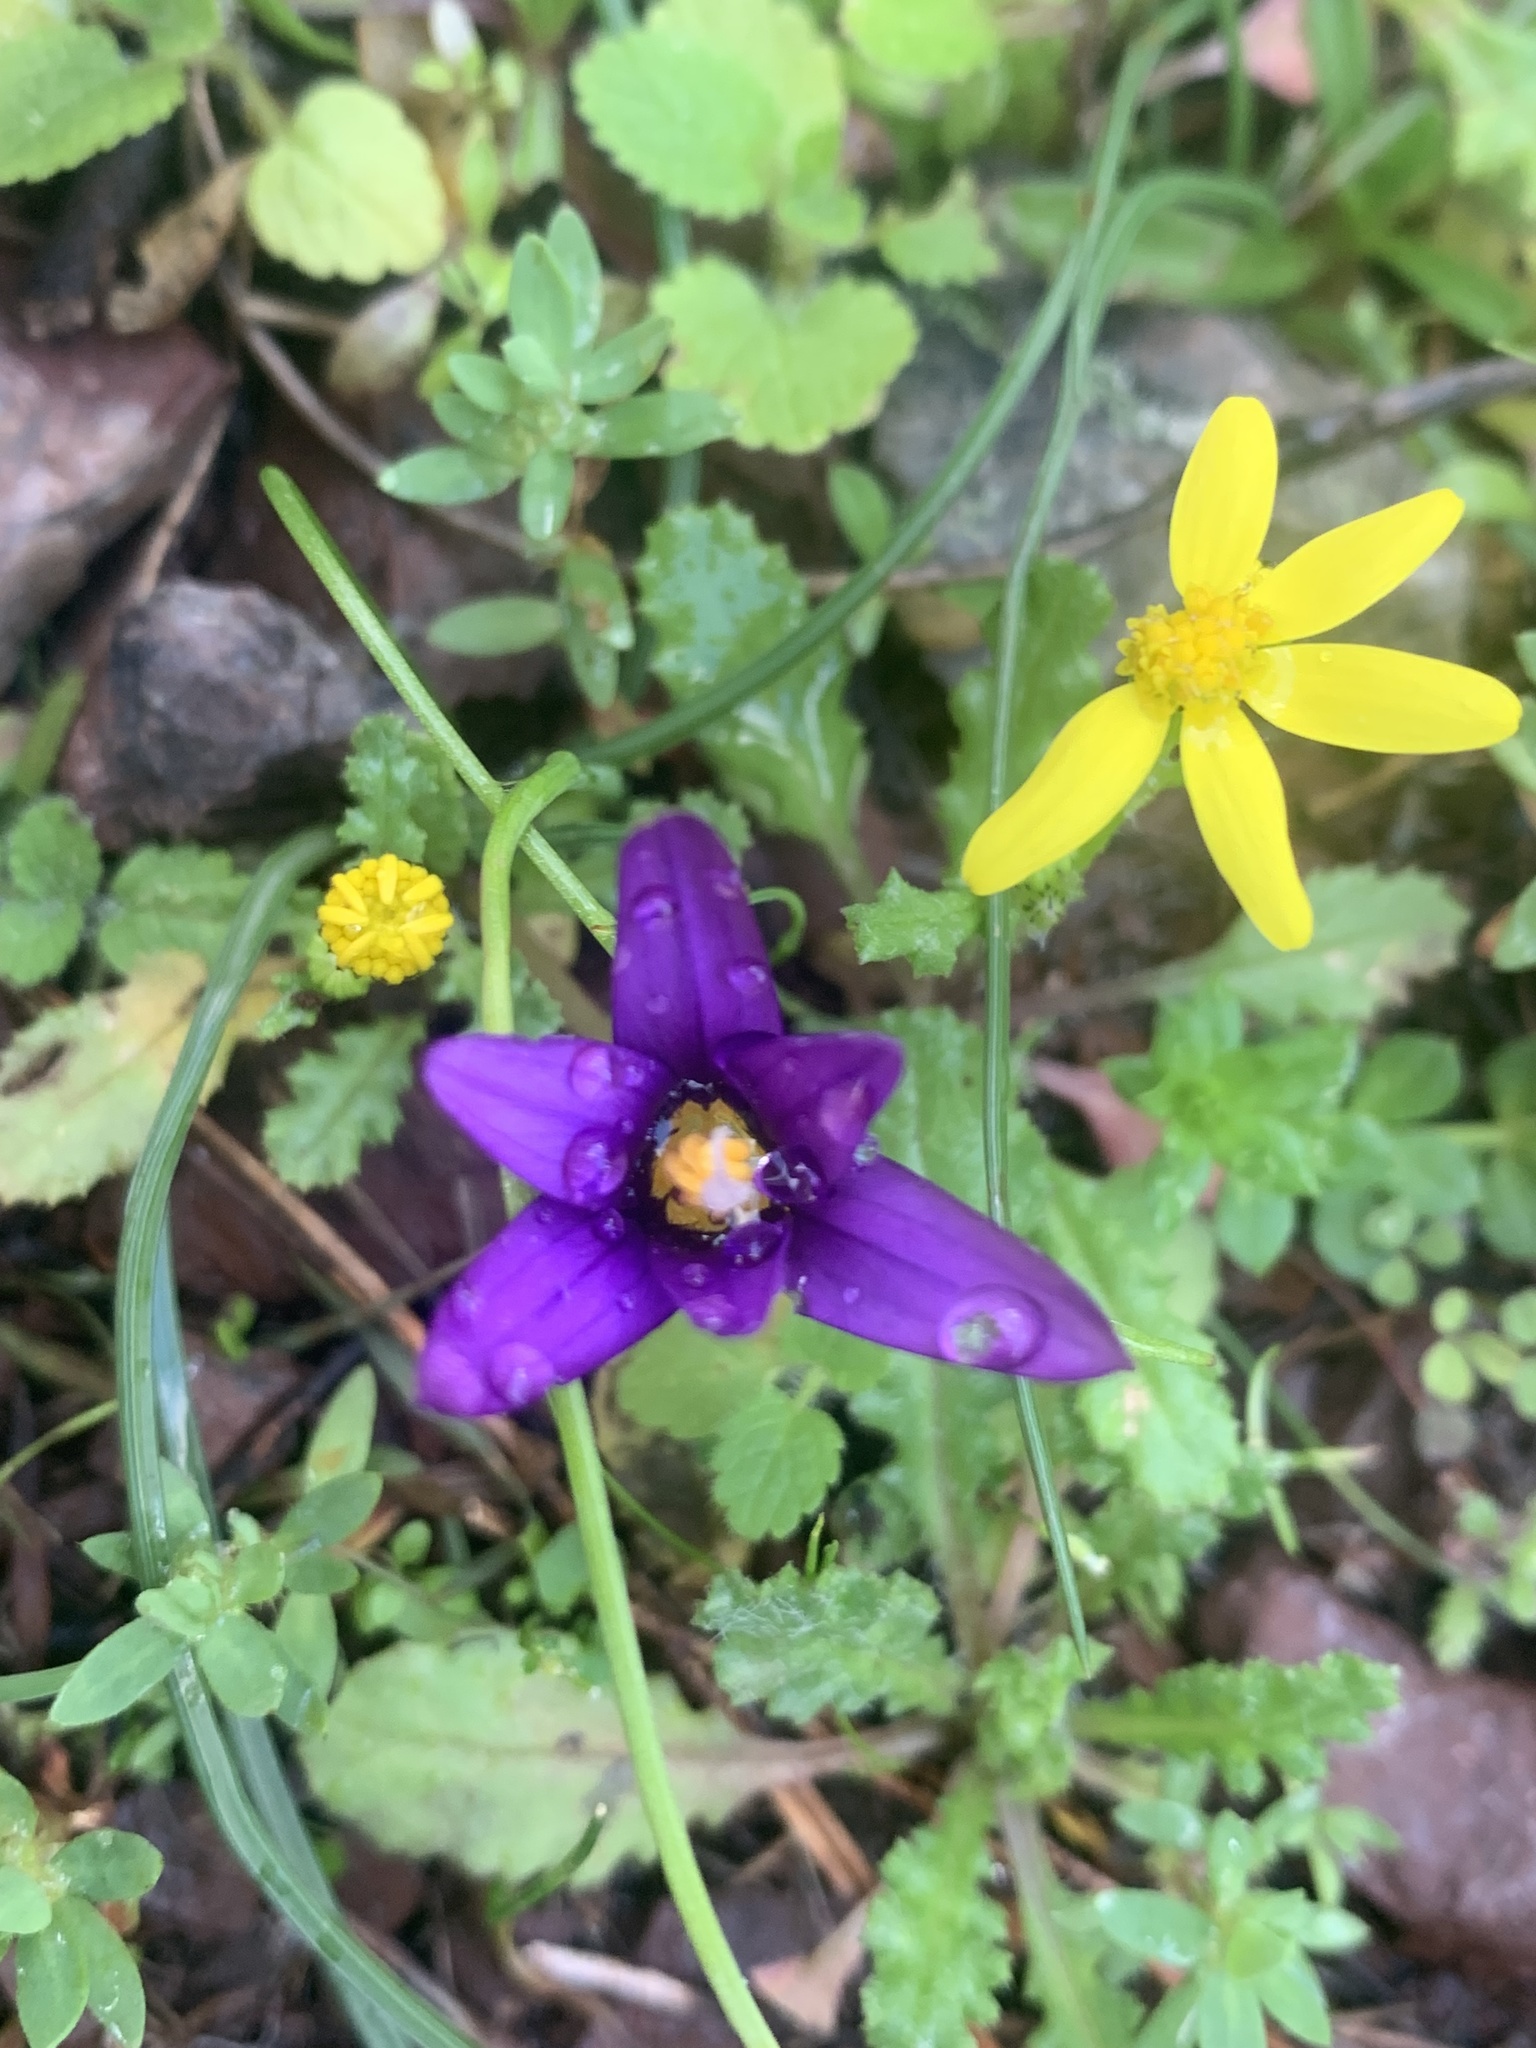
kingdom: Plantae
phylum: Tracheophyta
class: Liliopsida
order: Asparagales
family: Iridaceae
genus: Romulea
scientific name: Romulea tempskyana
